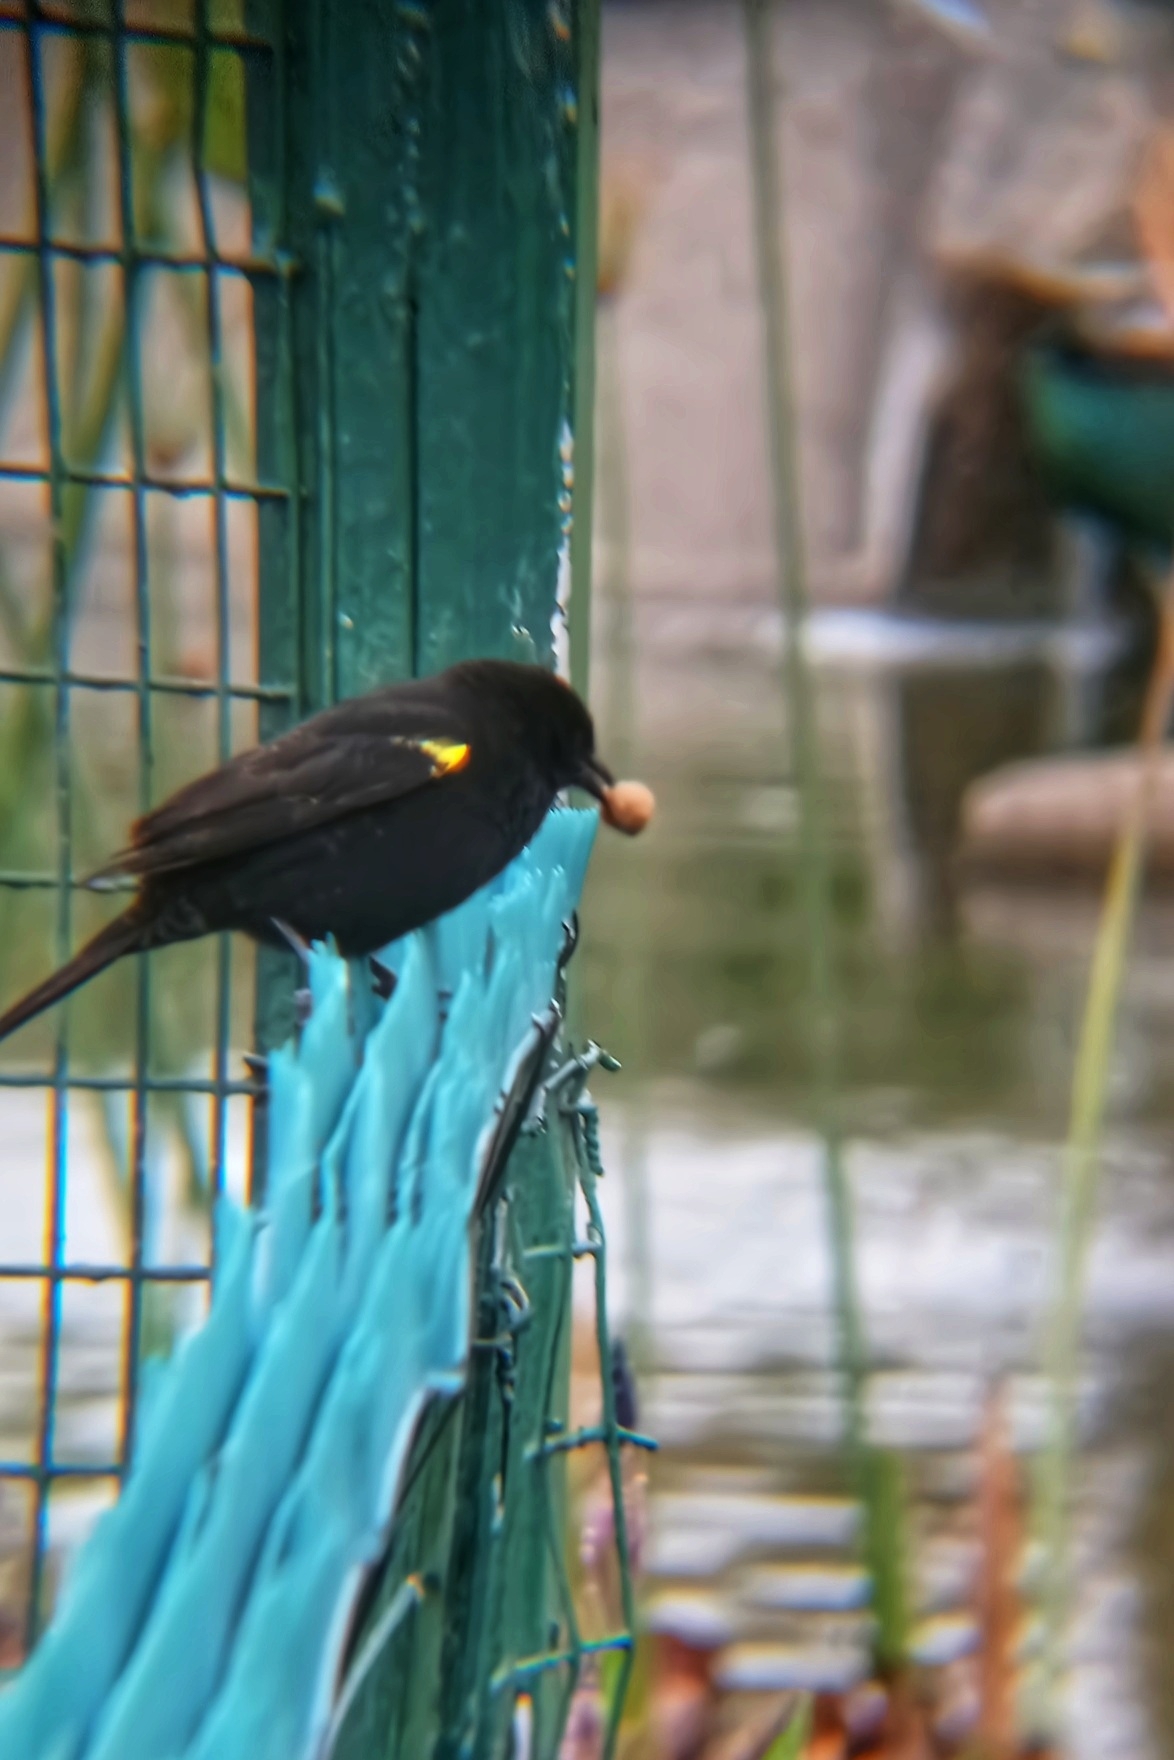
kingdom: Animalia
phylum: Chordata
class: Aves
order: Passeriformes
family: Icteridae
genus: Agelasticus
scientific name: Agelasticus thilius
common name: Yellow-winged blackbird
